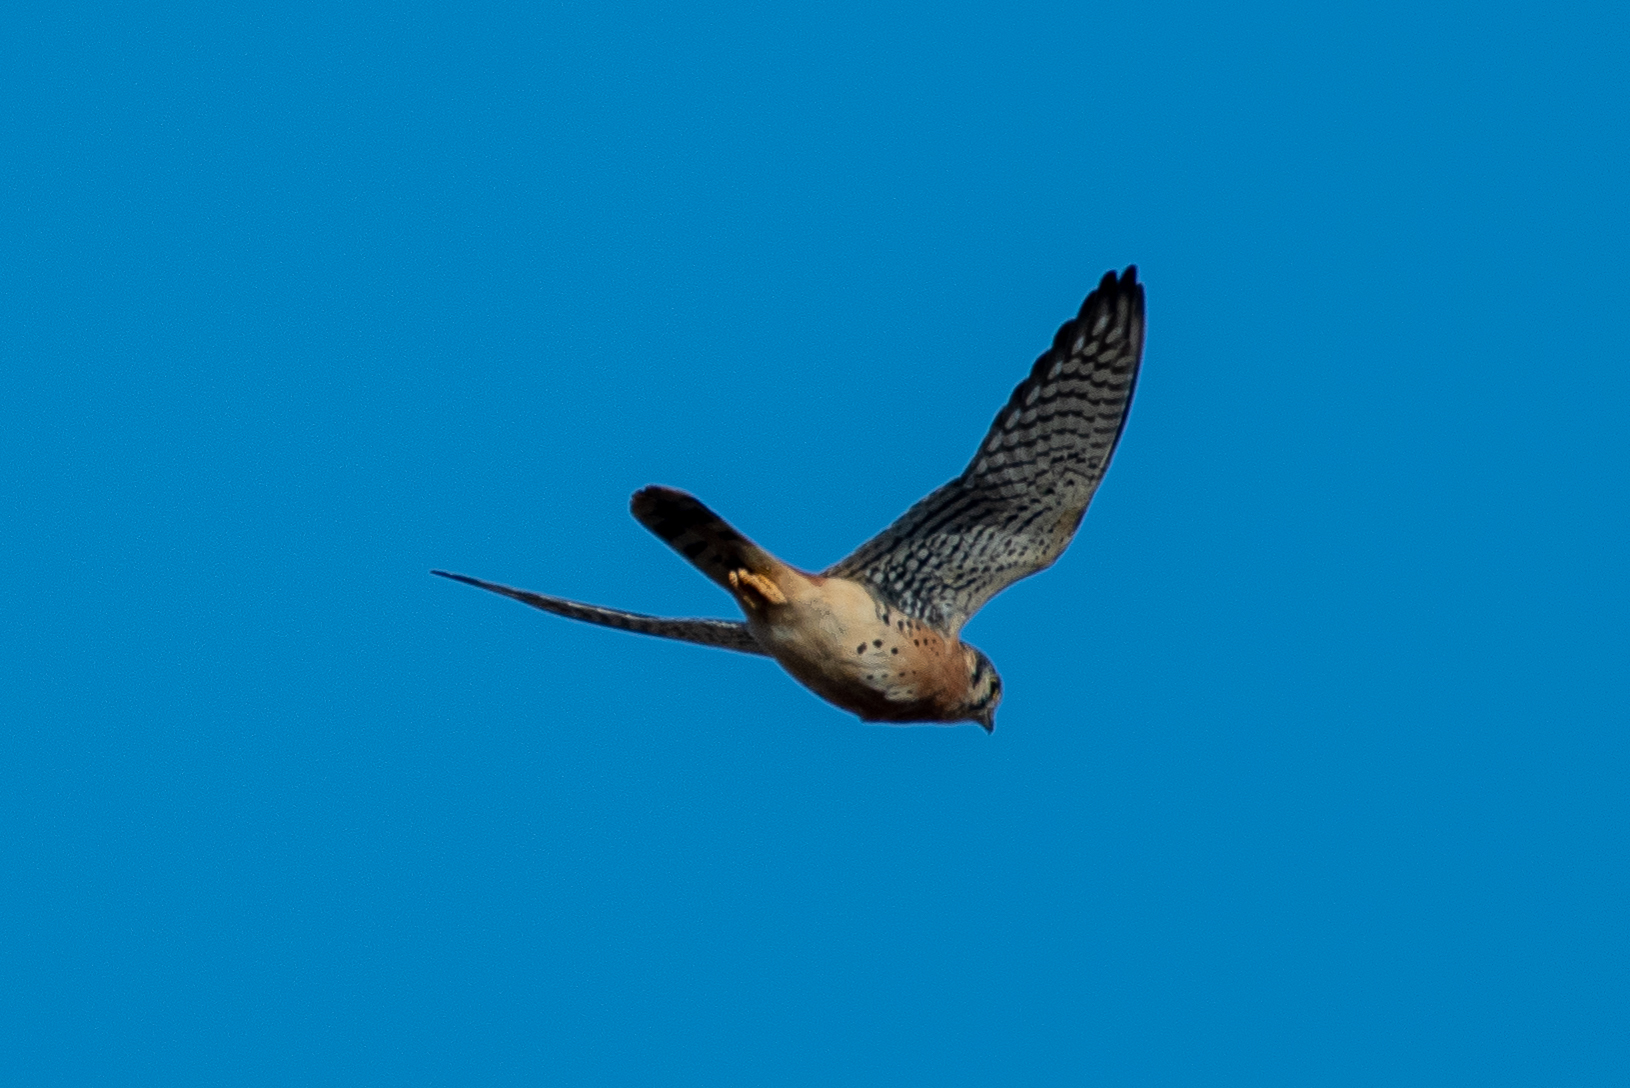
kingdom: Animalia
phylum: Chordata
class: Aves
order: Falconiformes
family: Falconidae
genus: Falco
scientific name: Falco sparverius
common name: American kestrel
